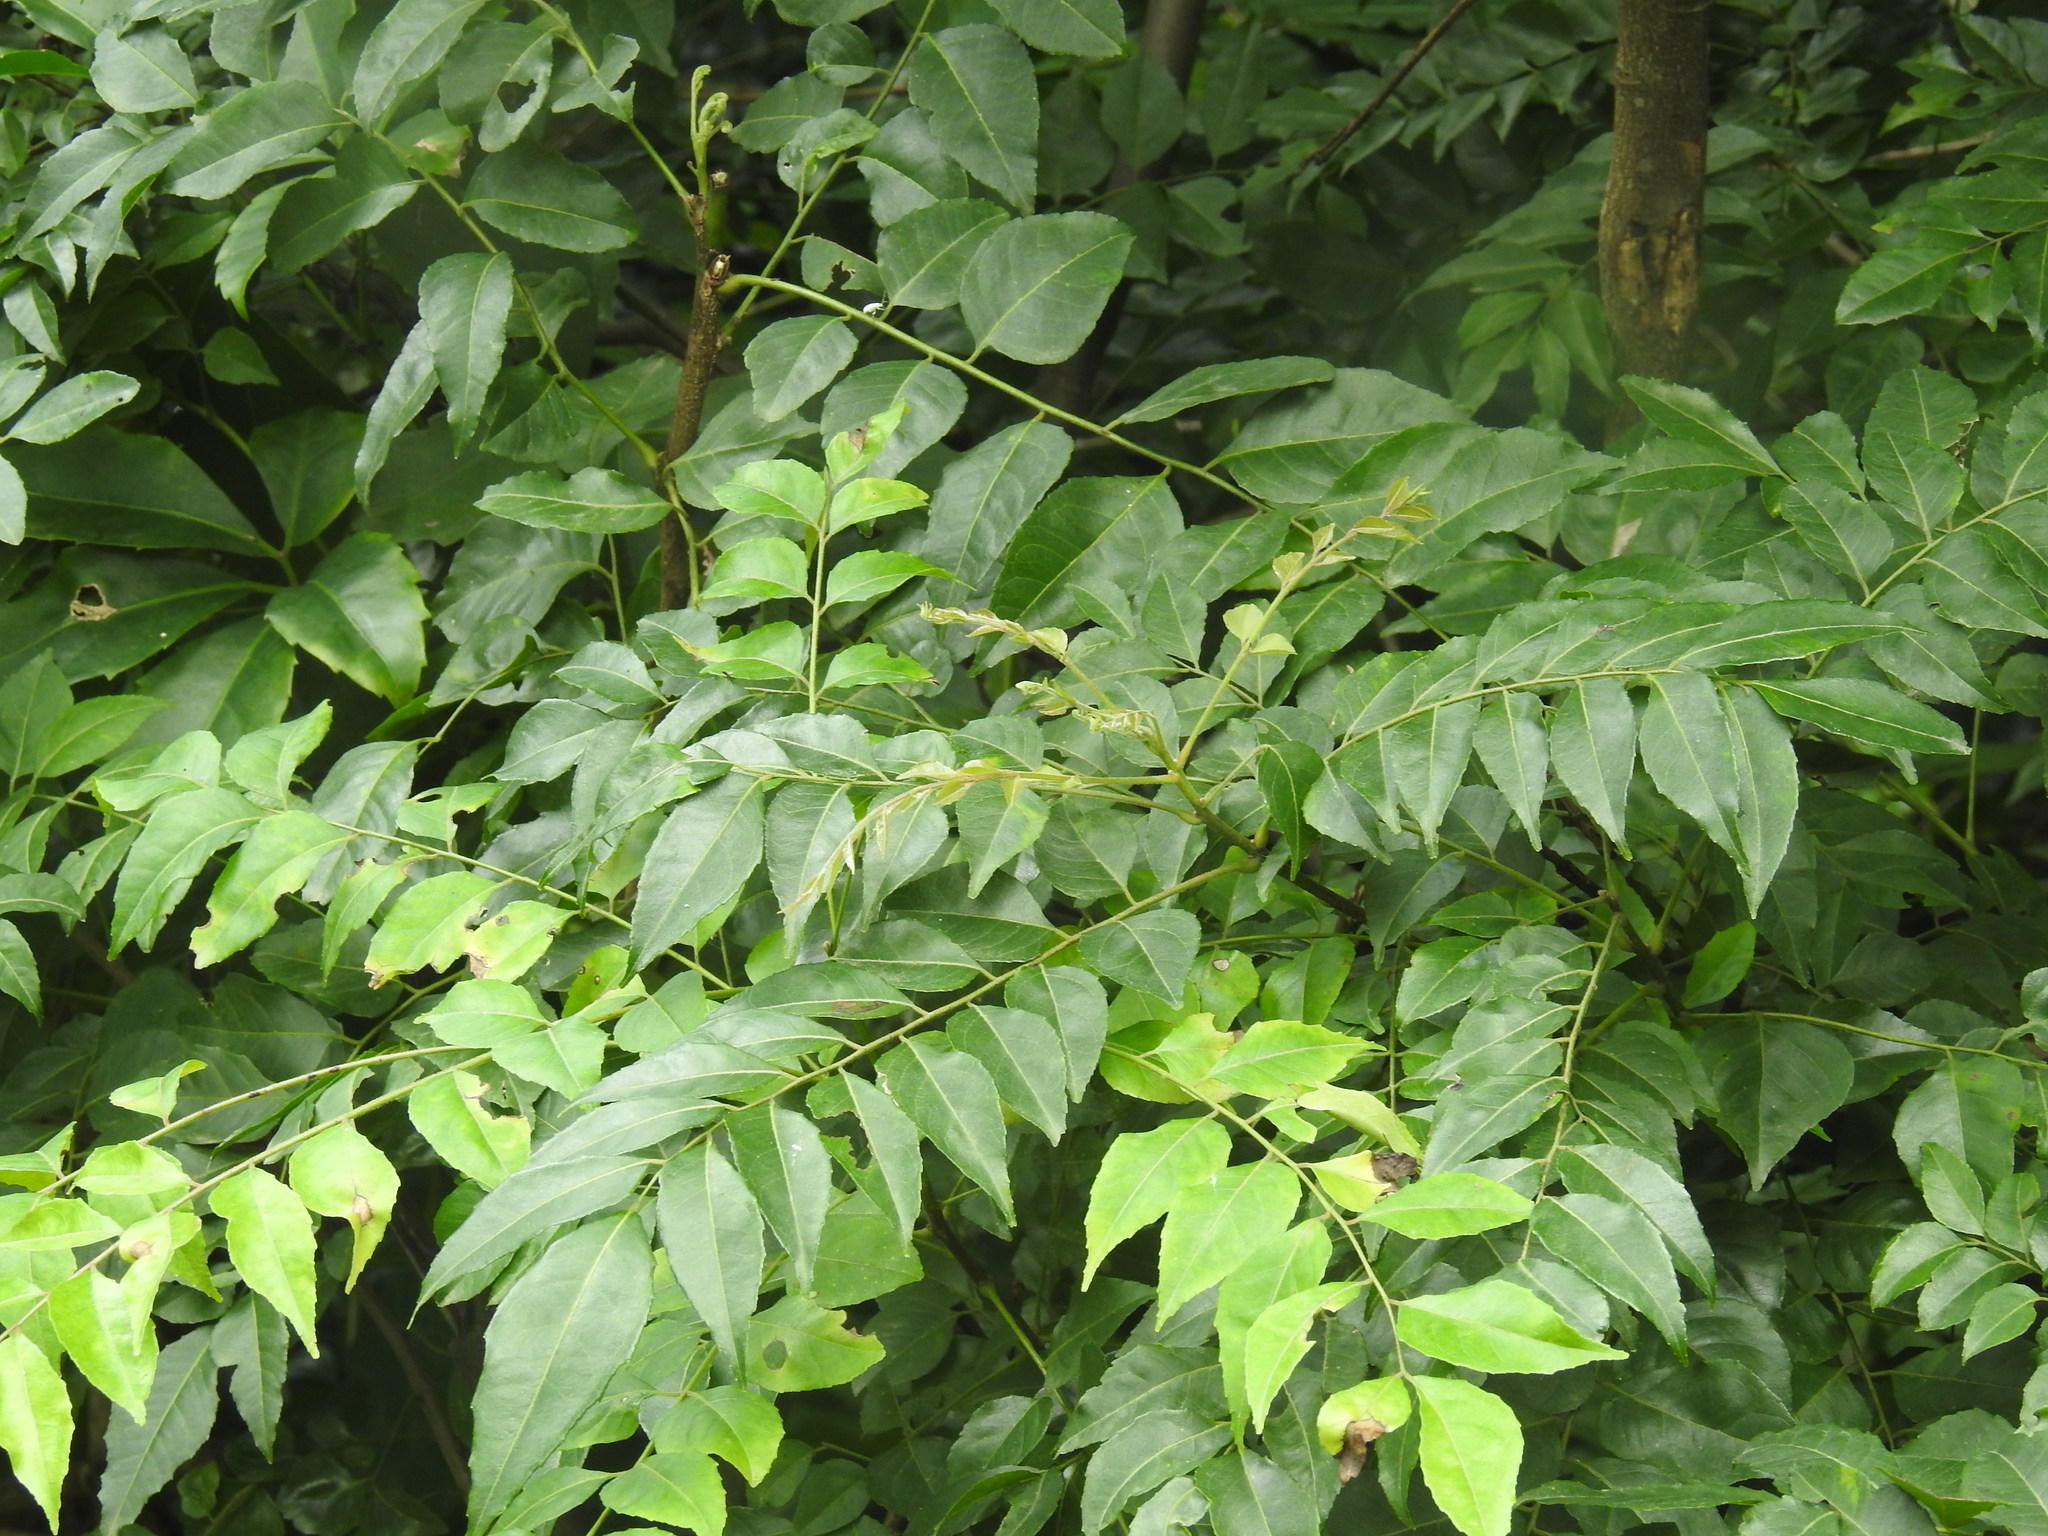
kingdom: Plantae
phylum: Tracheophyta
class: Magnoliopsida
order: Sapindales
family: Rutaceae
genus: Murraya
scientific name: Murraya koenigii
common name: Curry-plant
